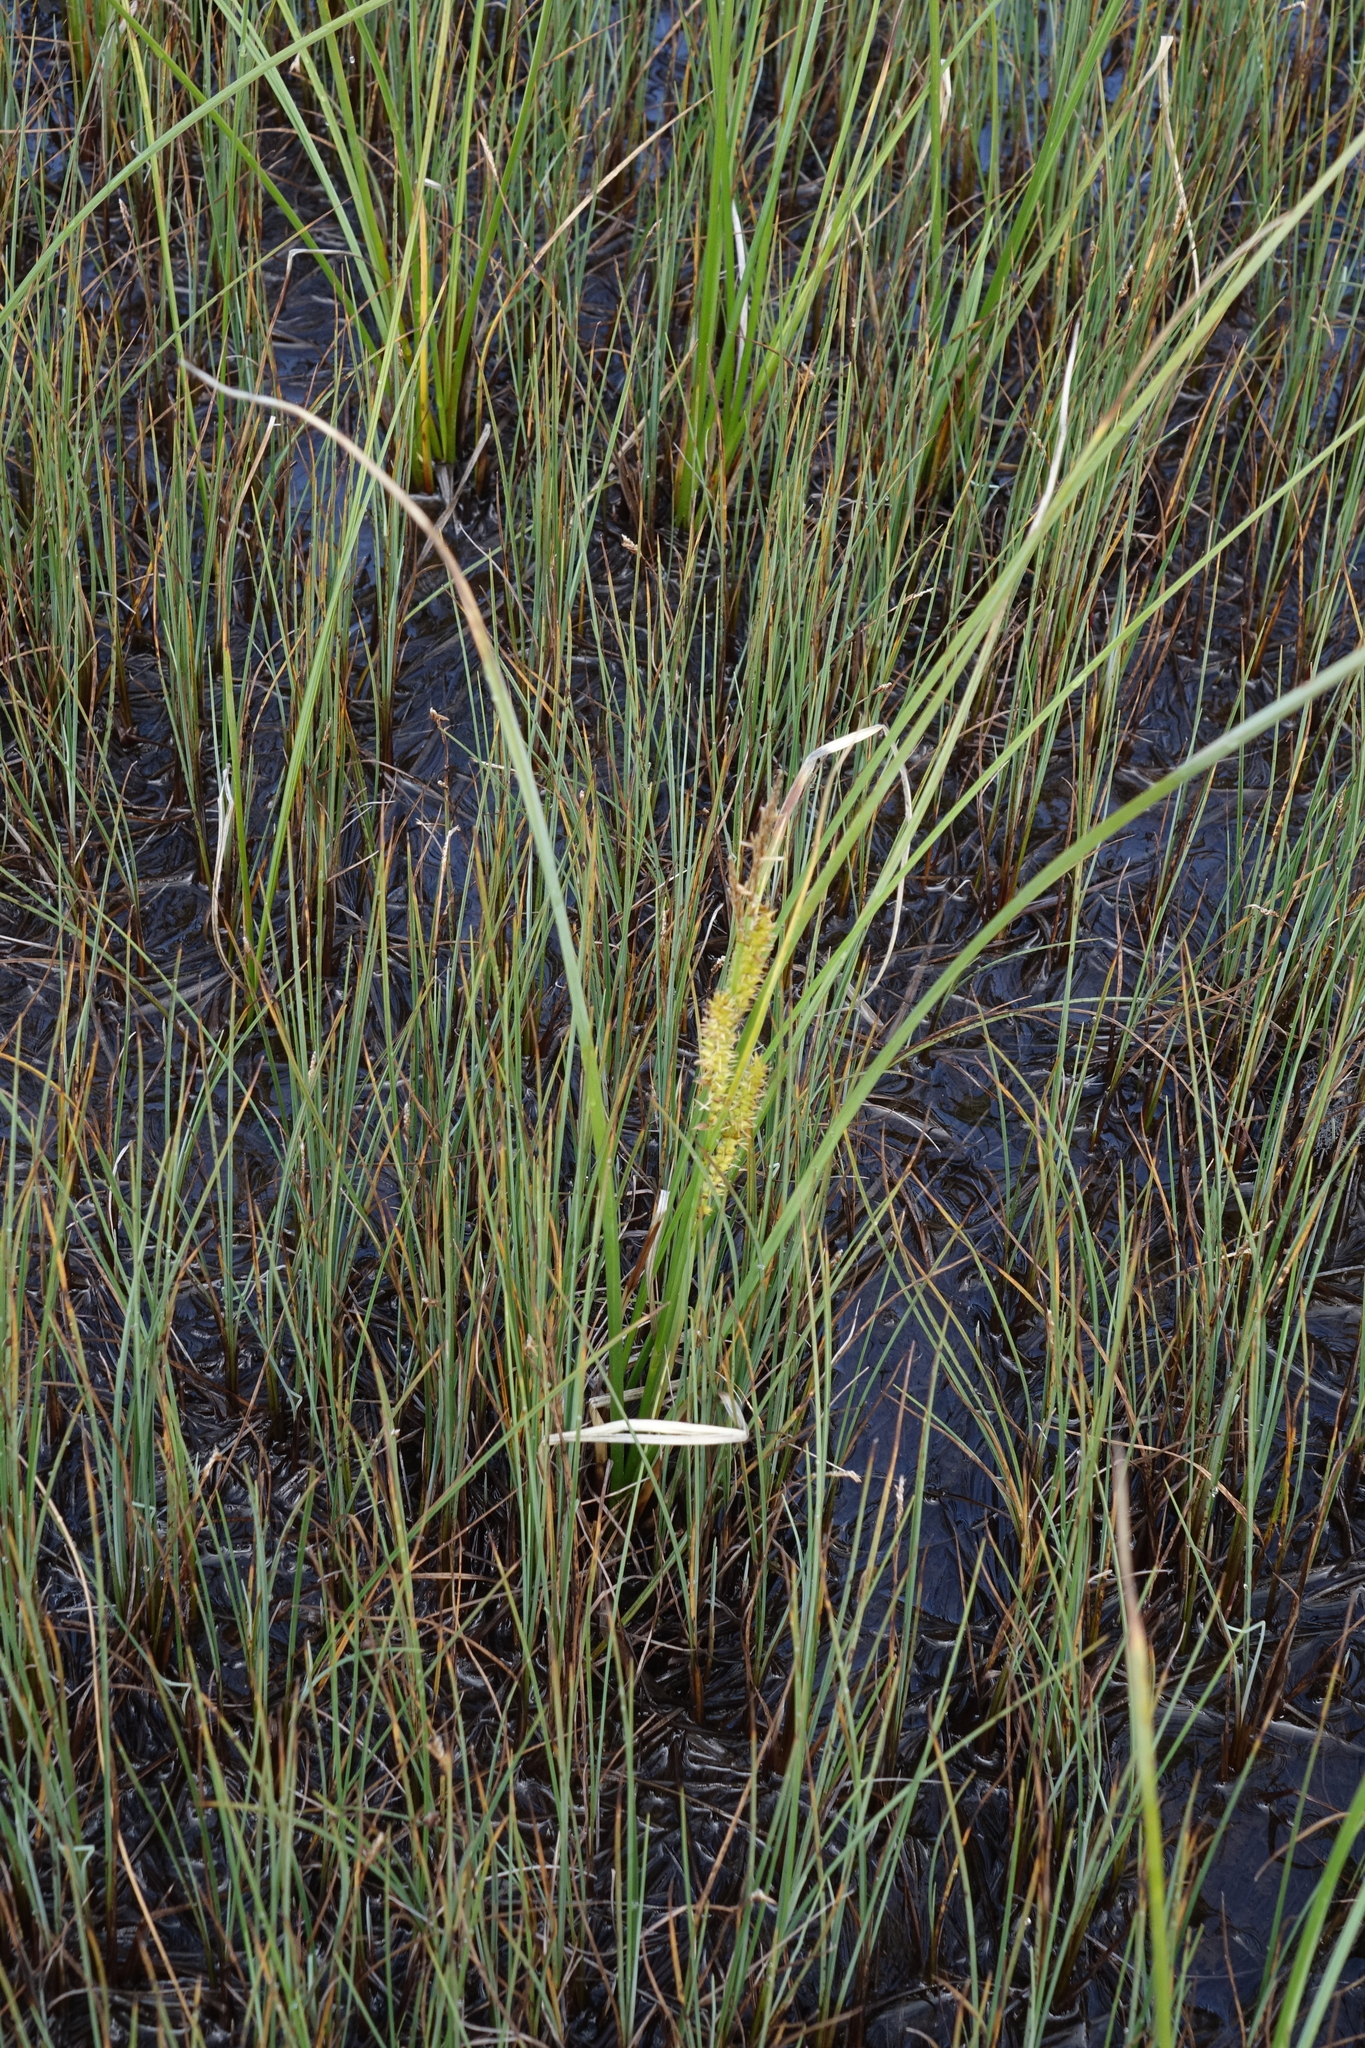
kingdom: Plantae
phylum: Tracheophyta
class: Liliopsida
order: Poales
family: Cyperaceae
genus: Carex
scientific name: Carex rostrata
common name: Bottle sedge
